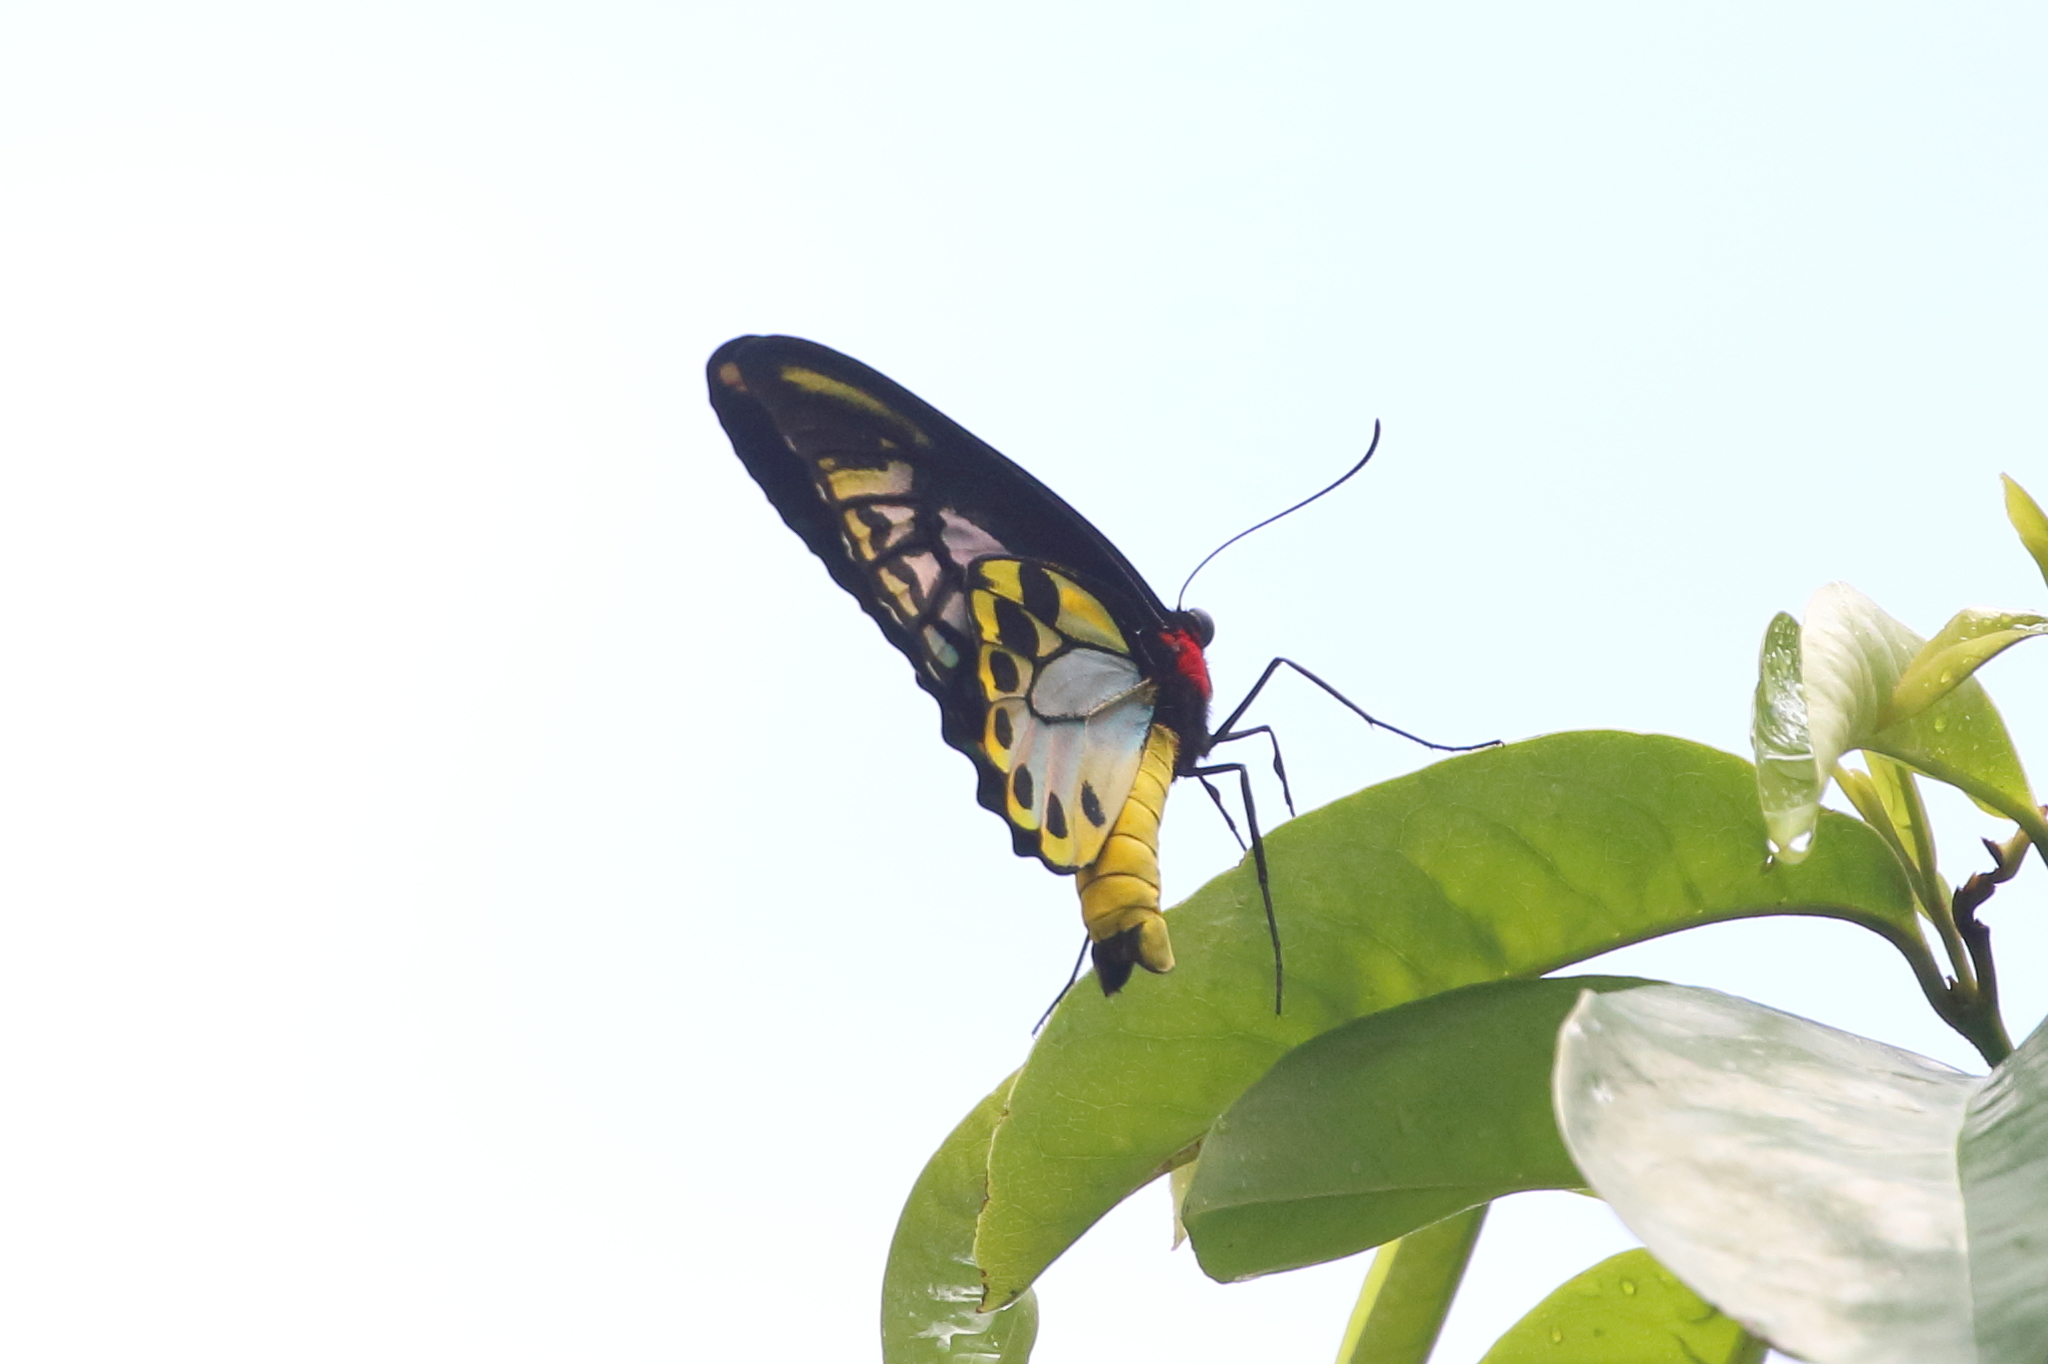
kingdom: Animalia
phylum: Arthropoda
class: Insecta
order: Lepidoptera
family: Papilionidae
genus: Ornithoptera
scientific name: Ornithoptera priamus
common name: Cape york birdwing
